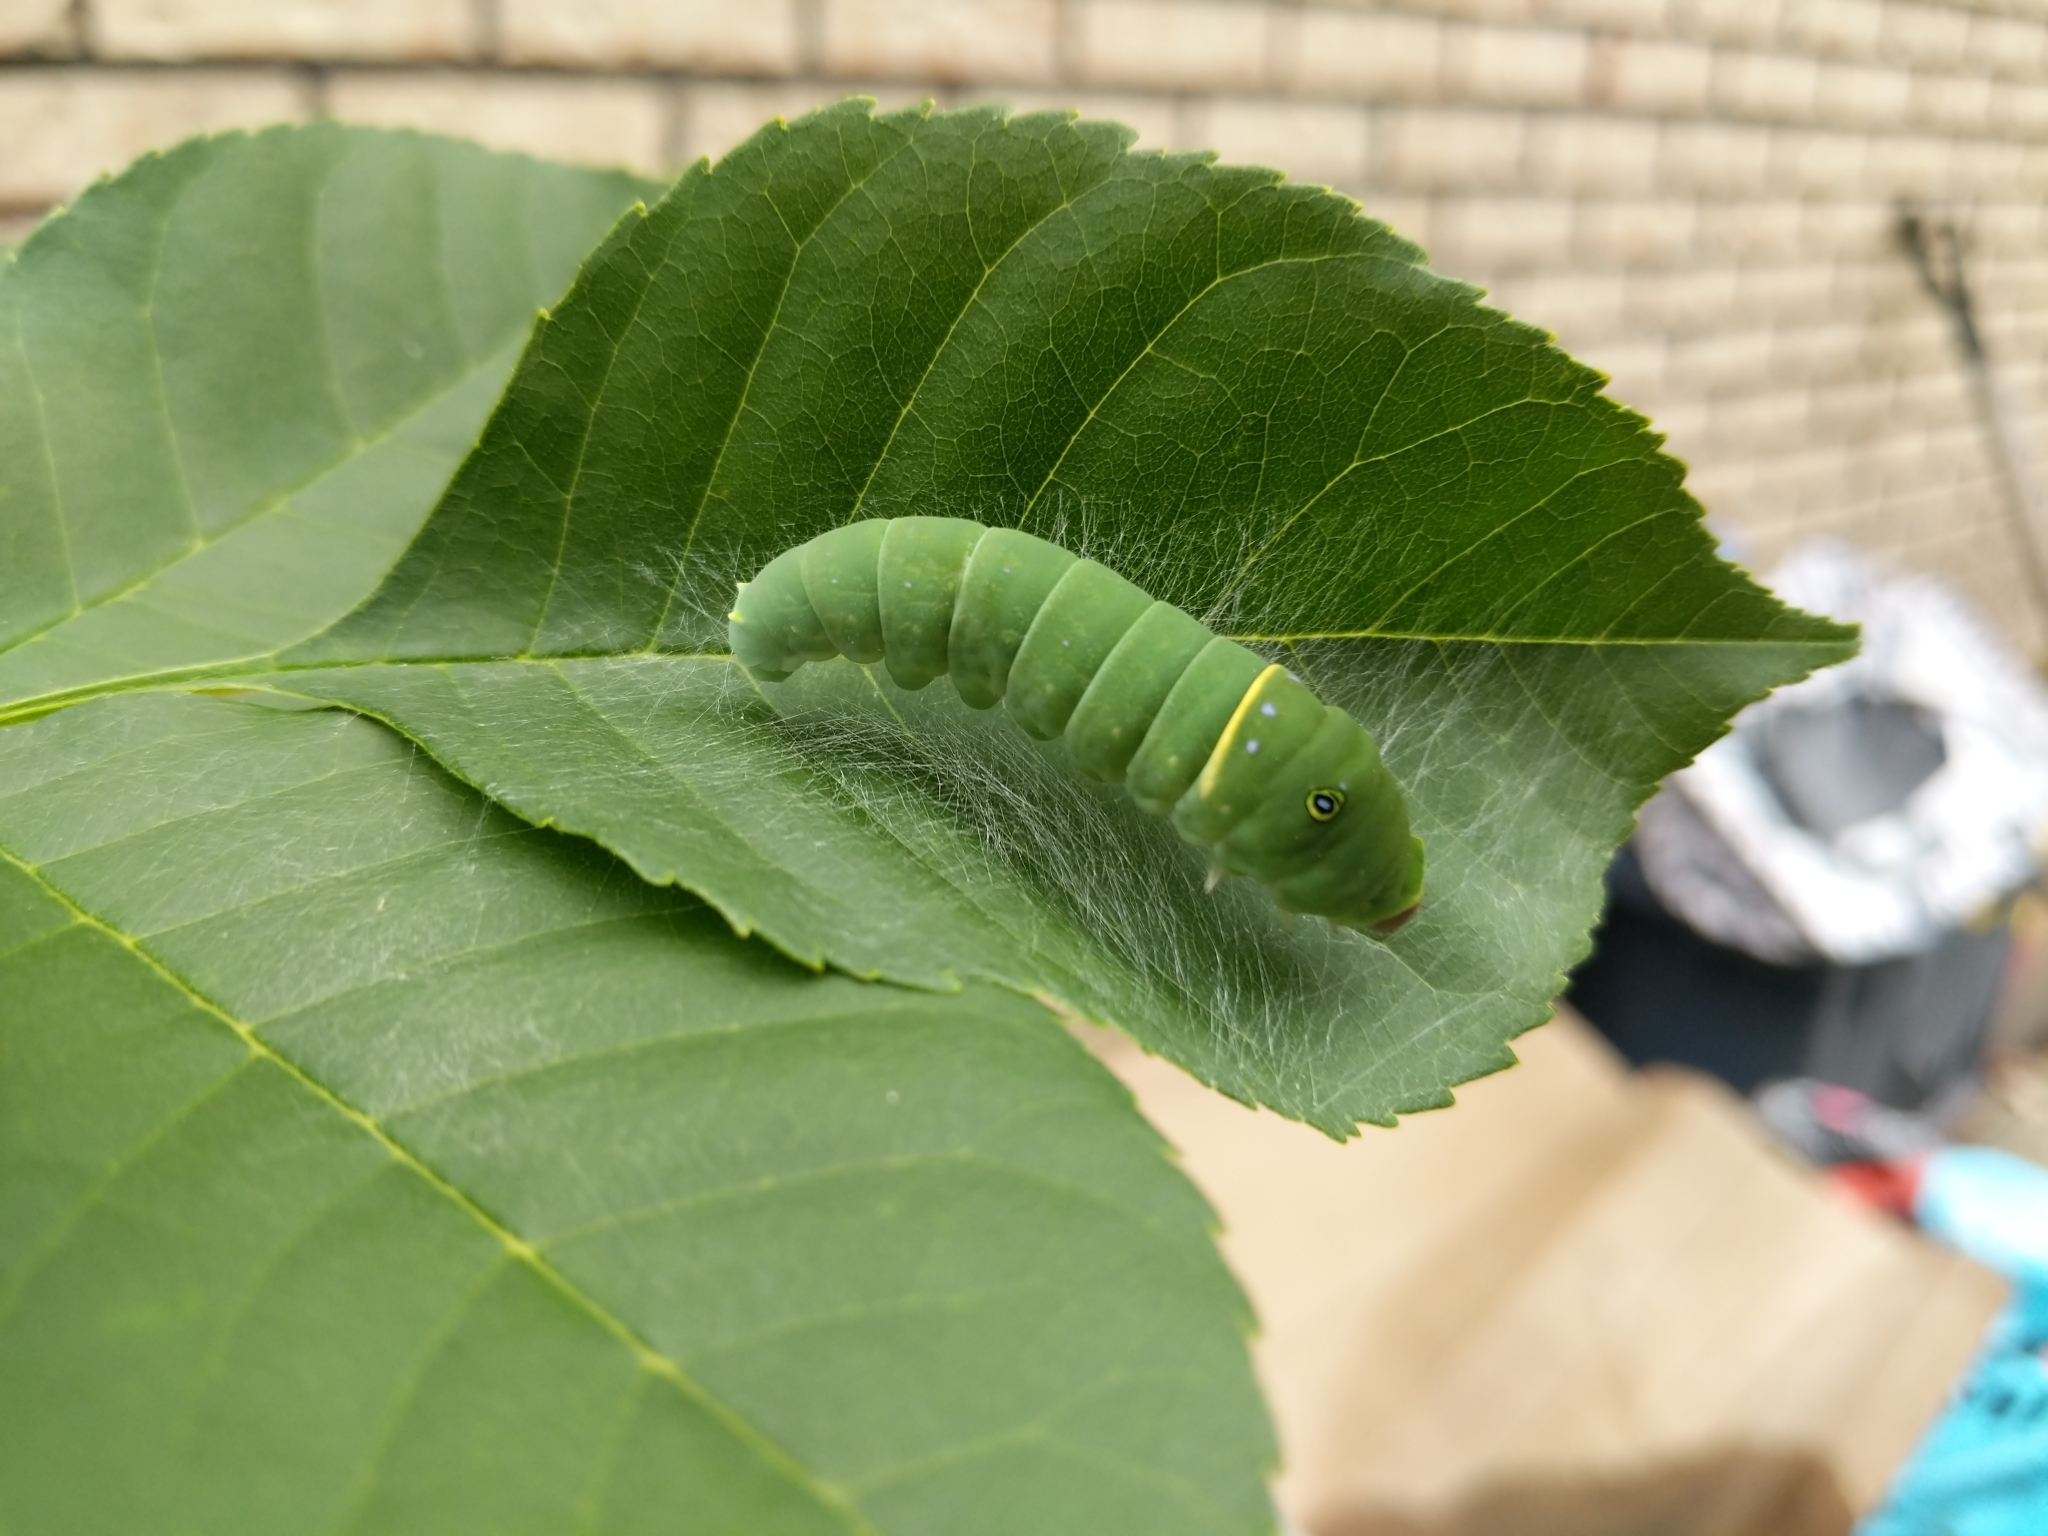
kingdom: Animalia
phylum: Arthropoda
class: Insecta
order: Lepidoptera
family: Papilionidae
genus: Papilio
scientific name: Papilio canadensis
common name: Canadian tiger swallowtail
